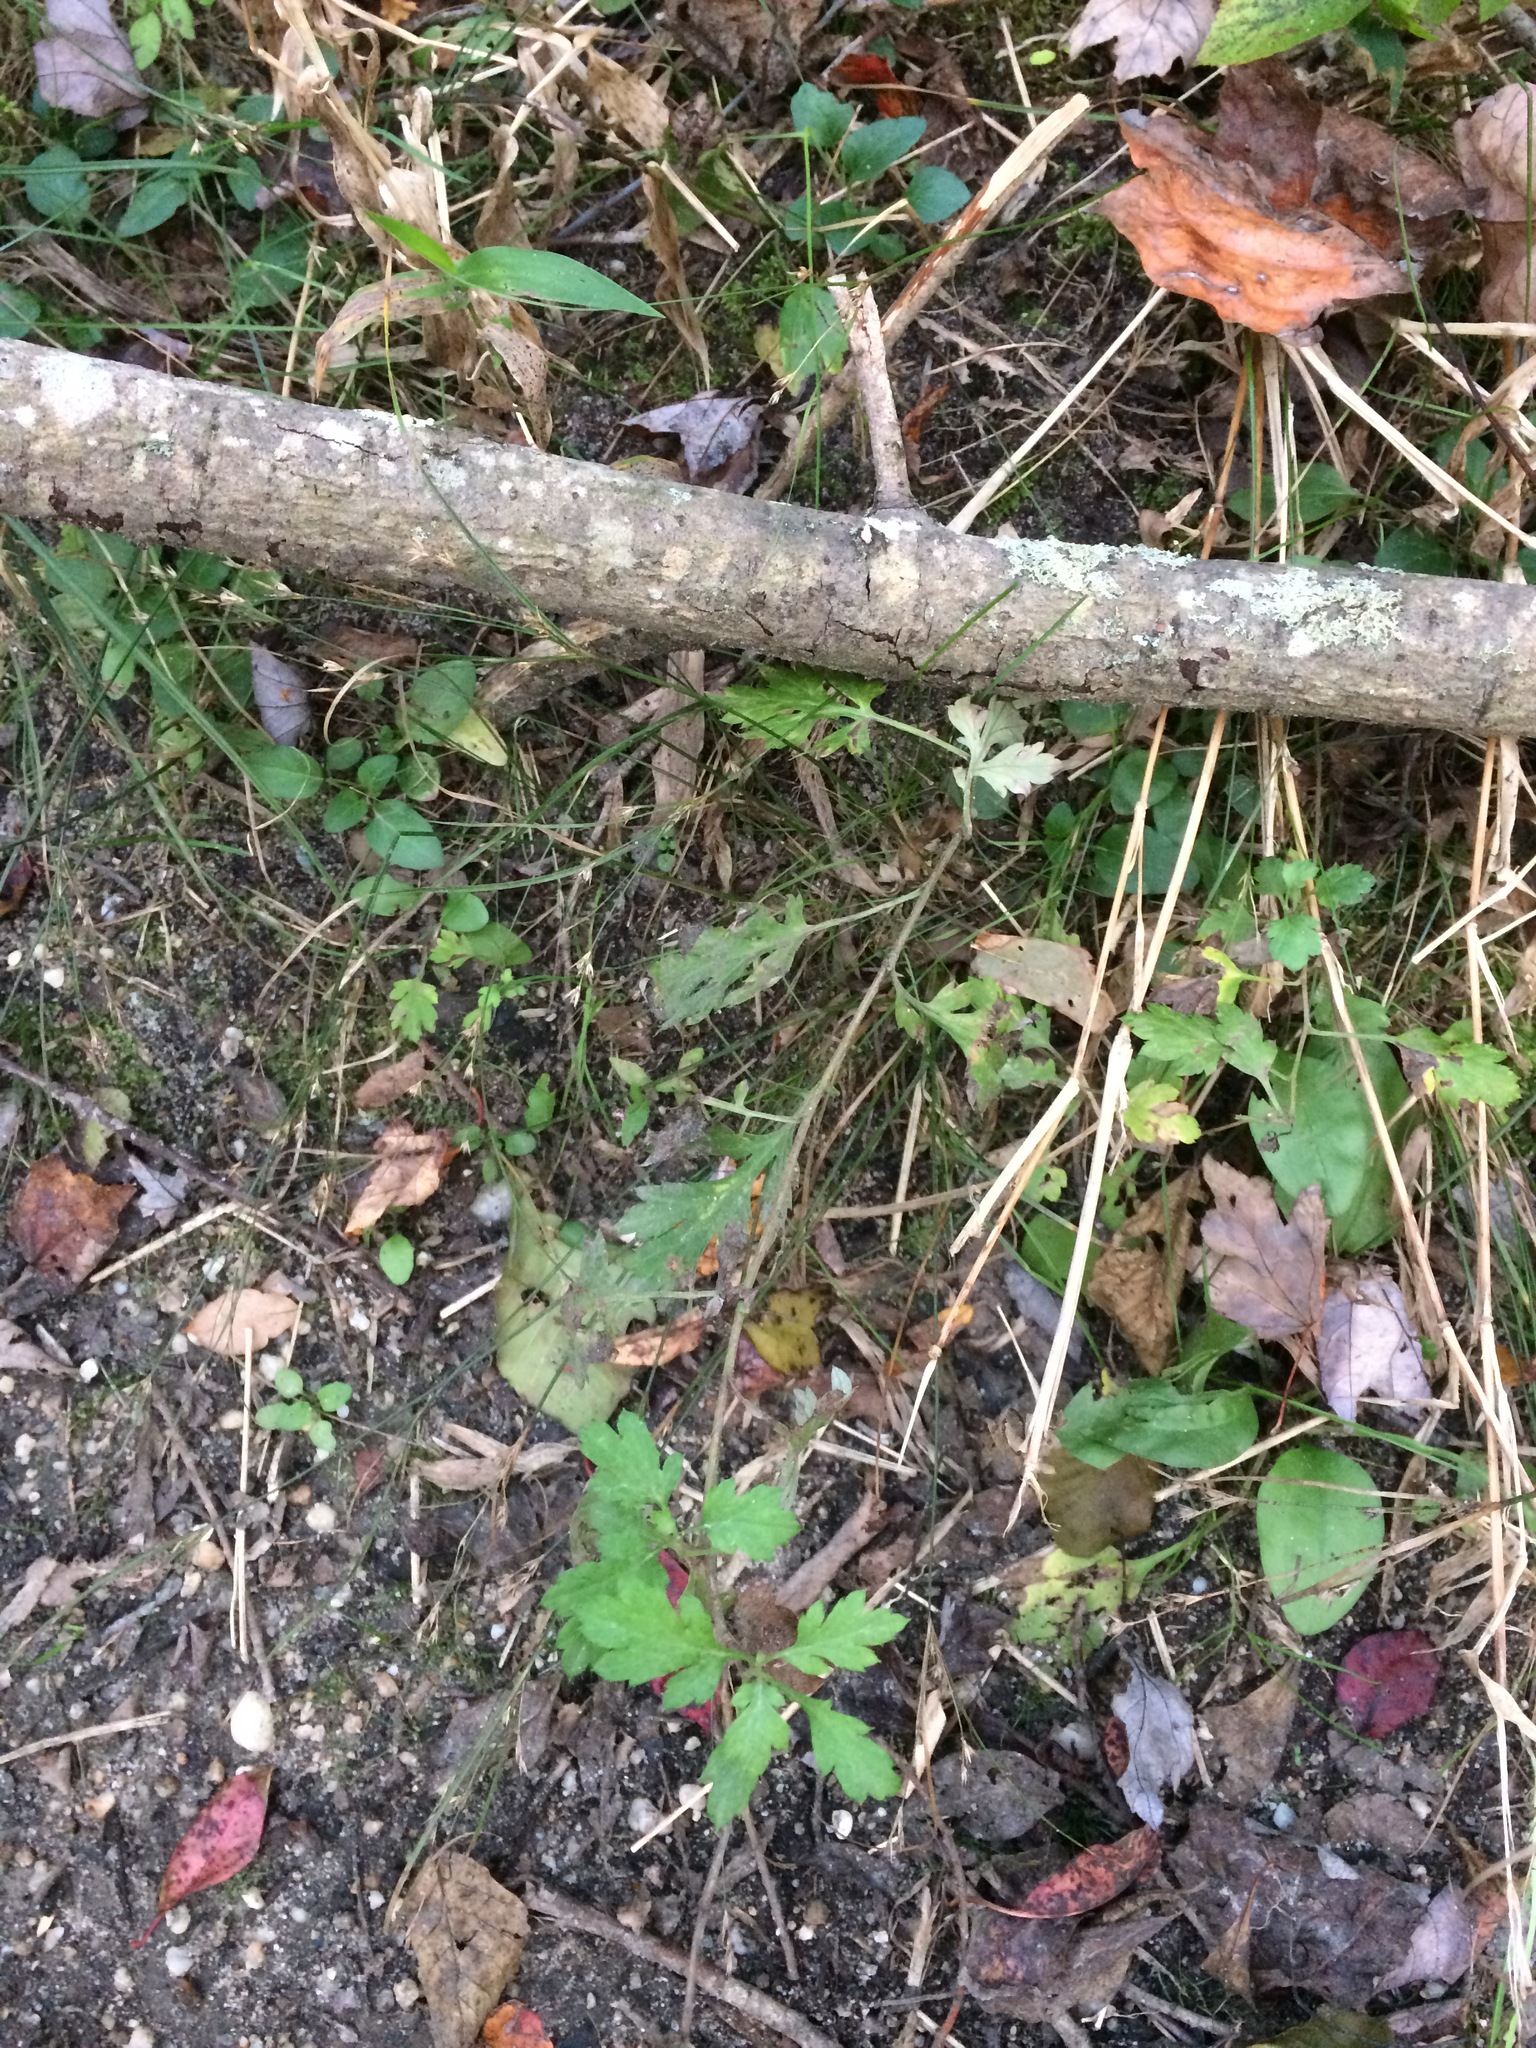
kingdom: Plantae
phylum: Tracheophyta
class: Magnoliopsida
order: Asterales
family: Asteraceae
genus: Artemisia
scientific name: Artemisia vulgaris
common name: Mugwort
